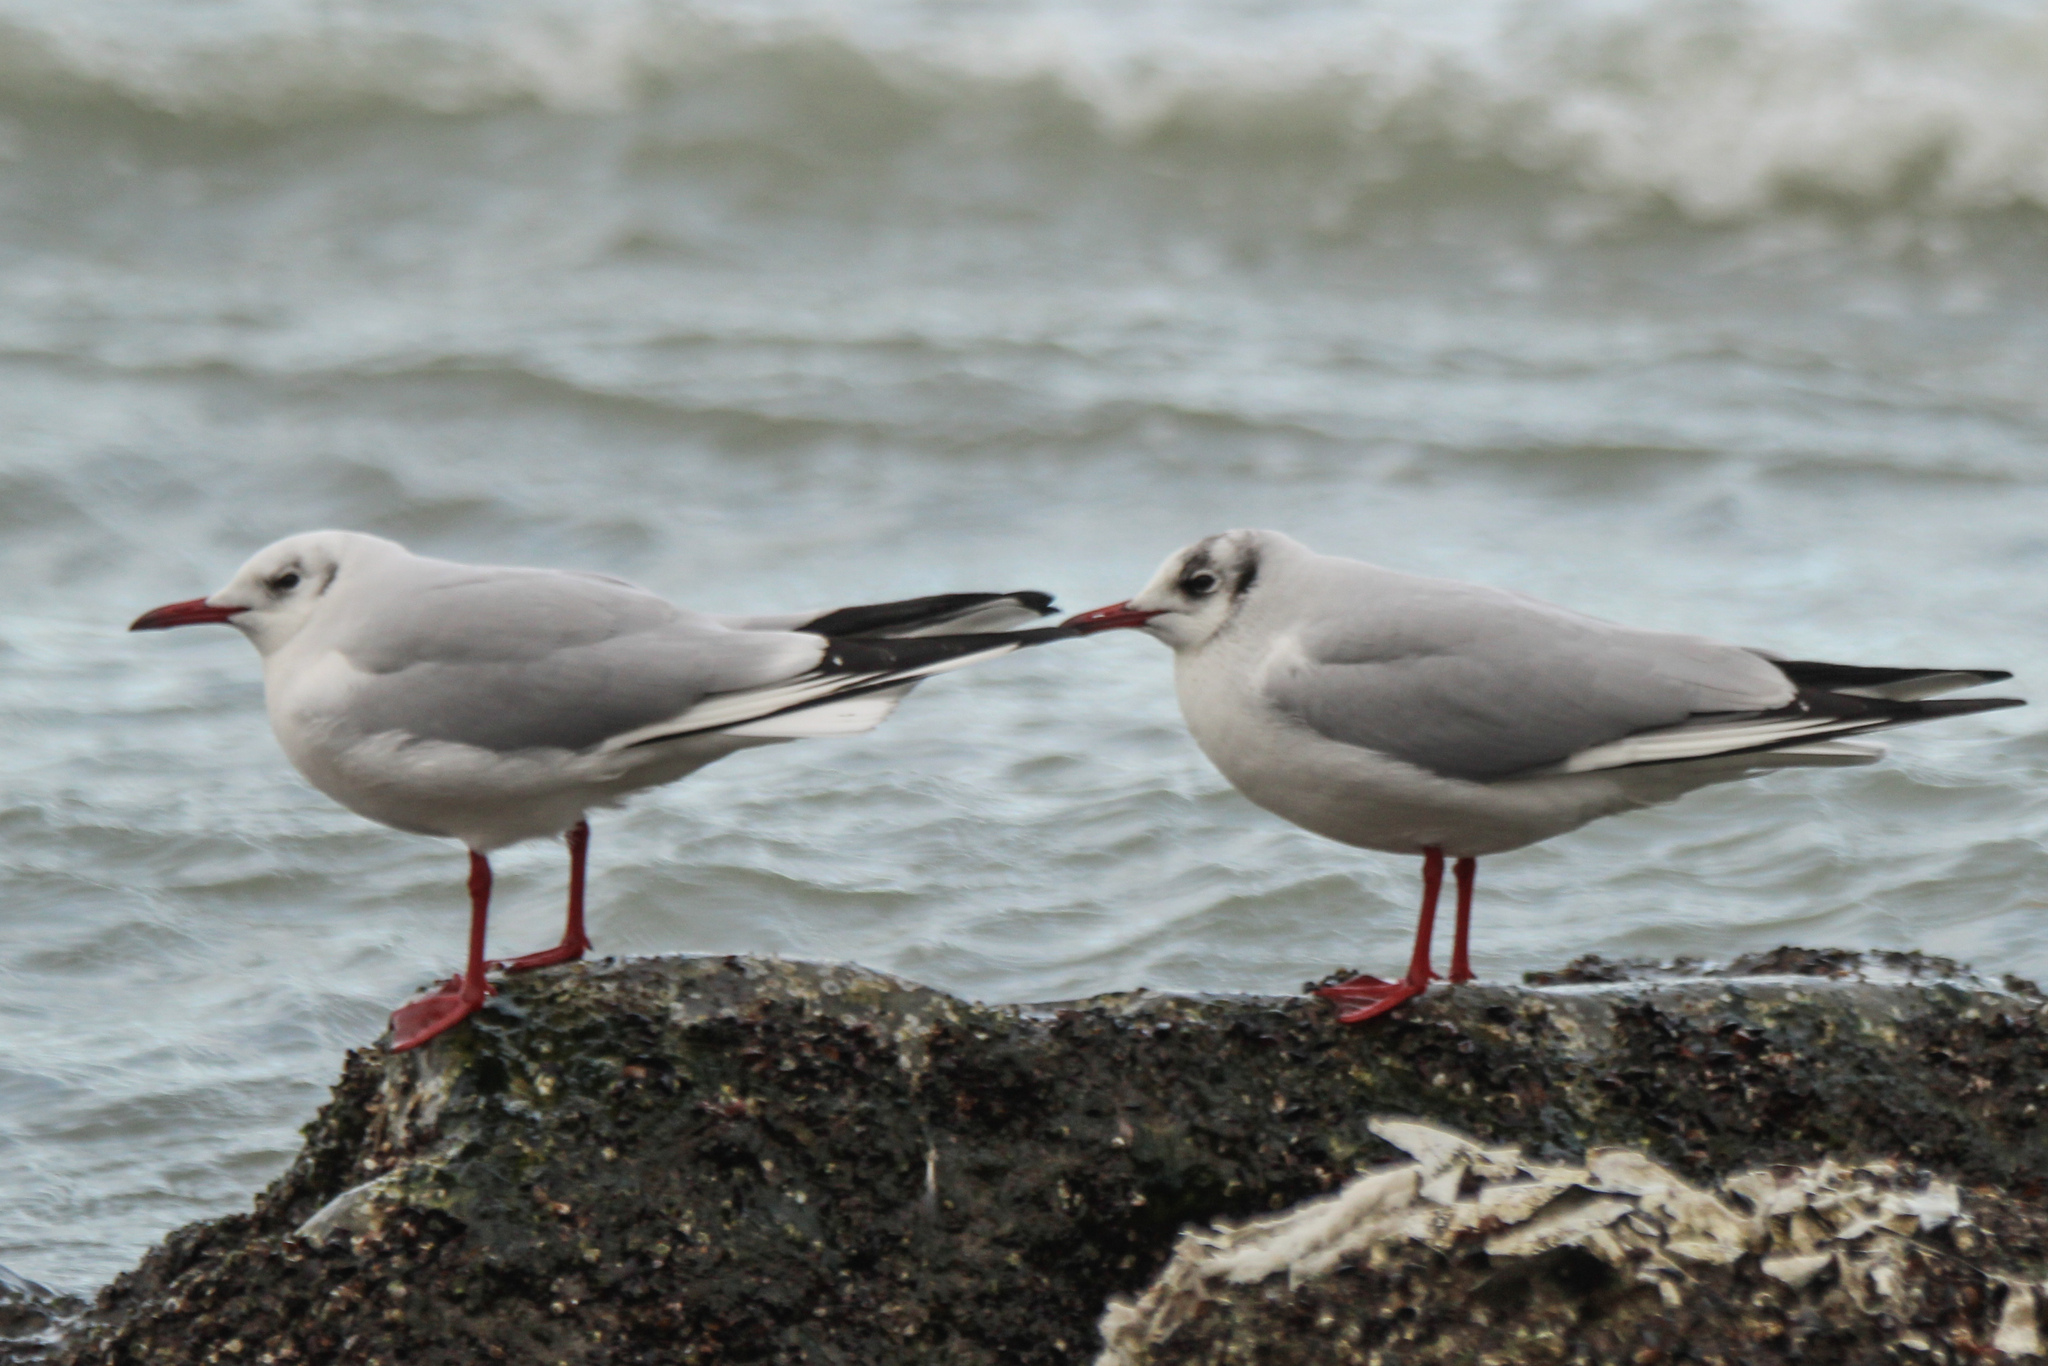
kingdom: Animalia
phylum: Chordata
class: Aves
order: Charadriiformes
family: Laridae
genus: Chroicocephalus
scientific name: Chroicocephalus ridibundus
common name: Black-headed gull
